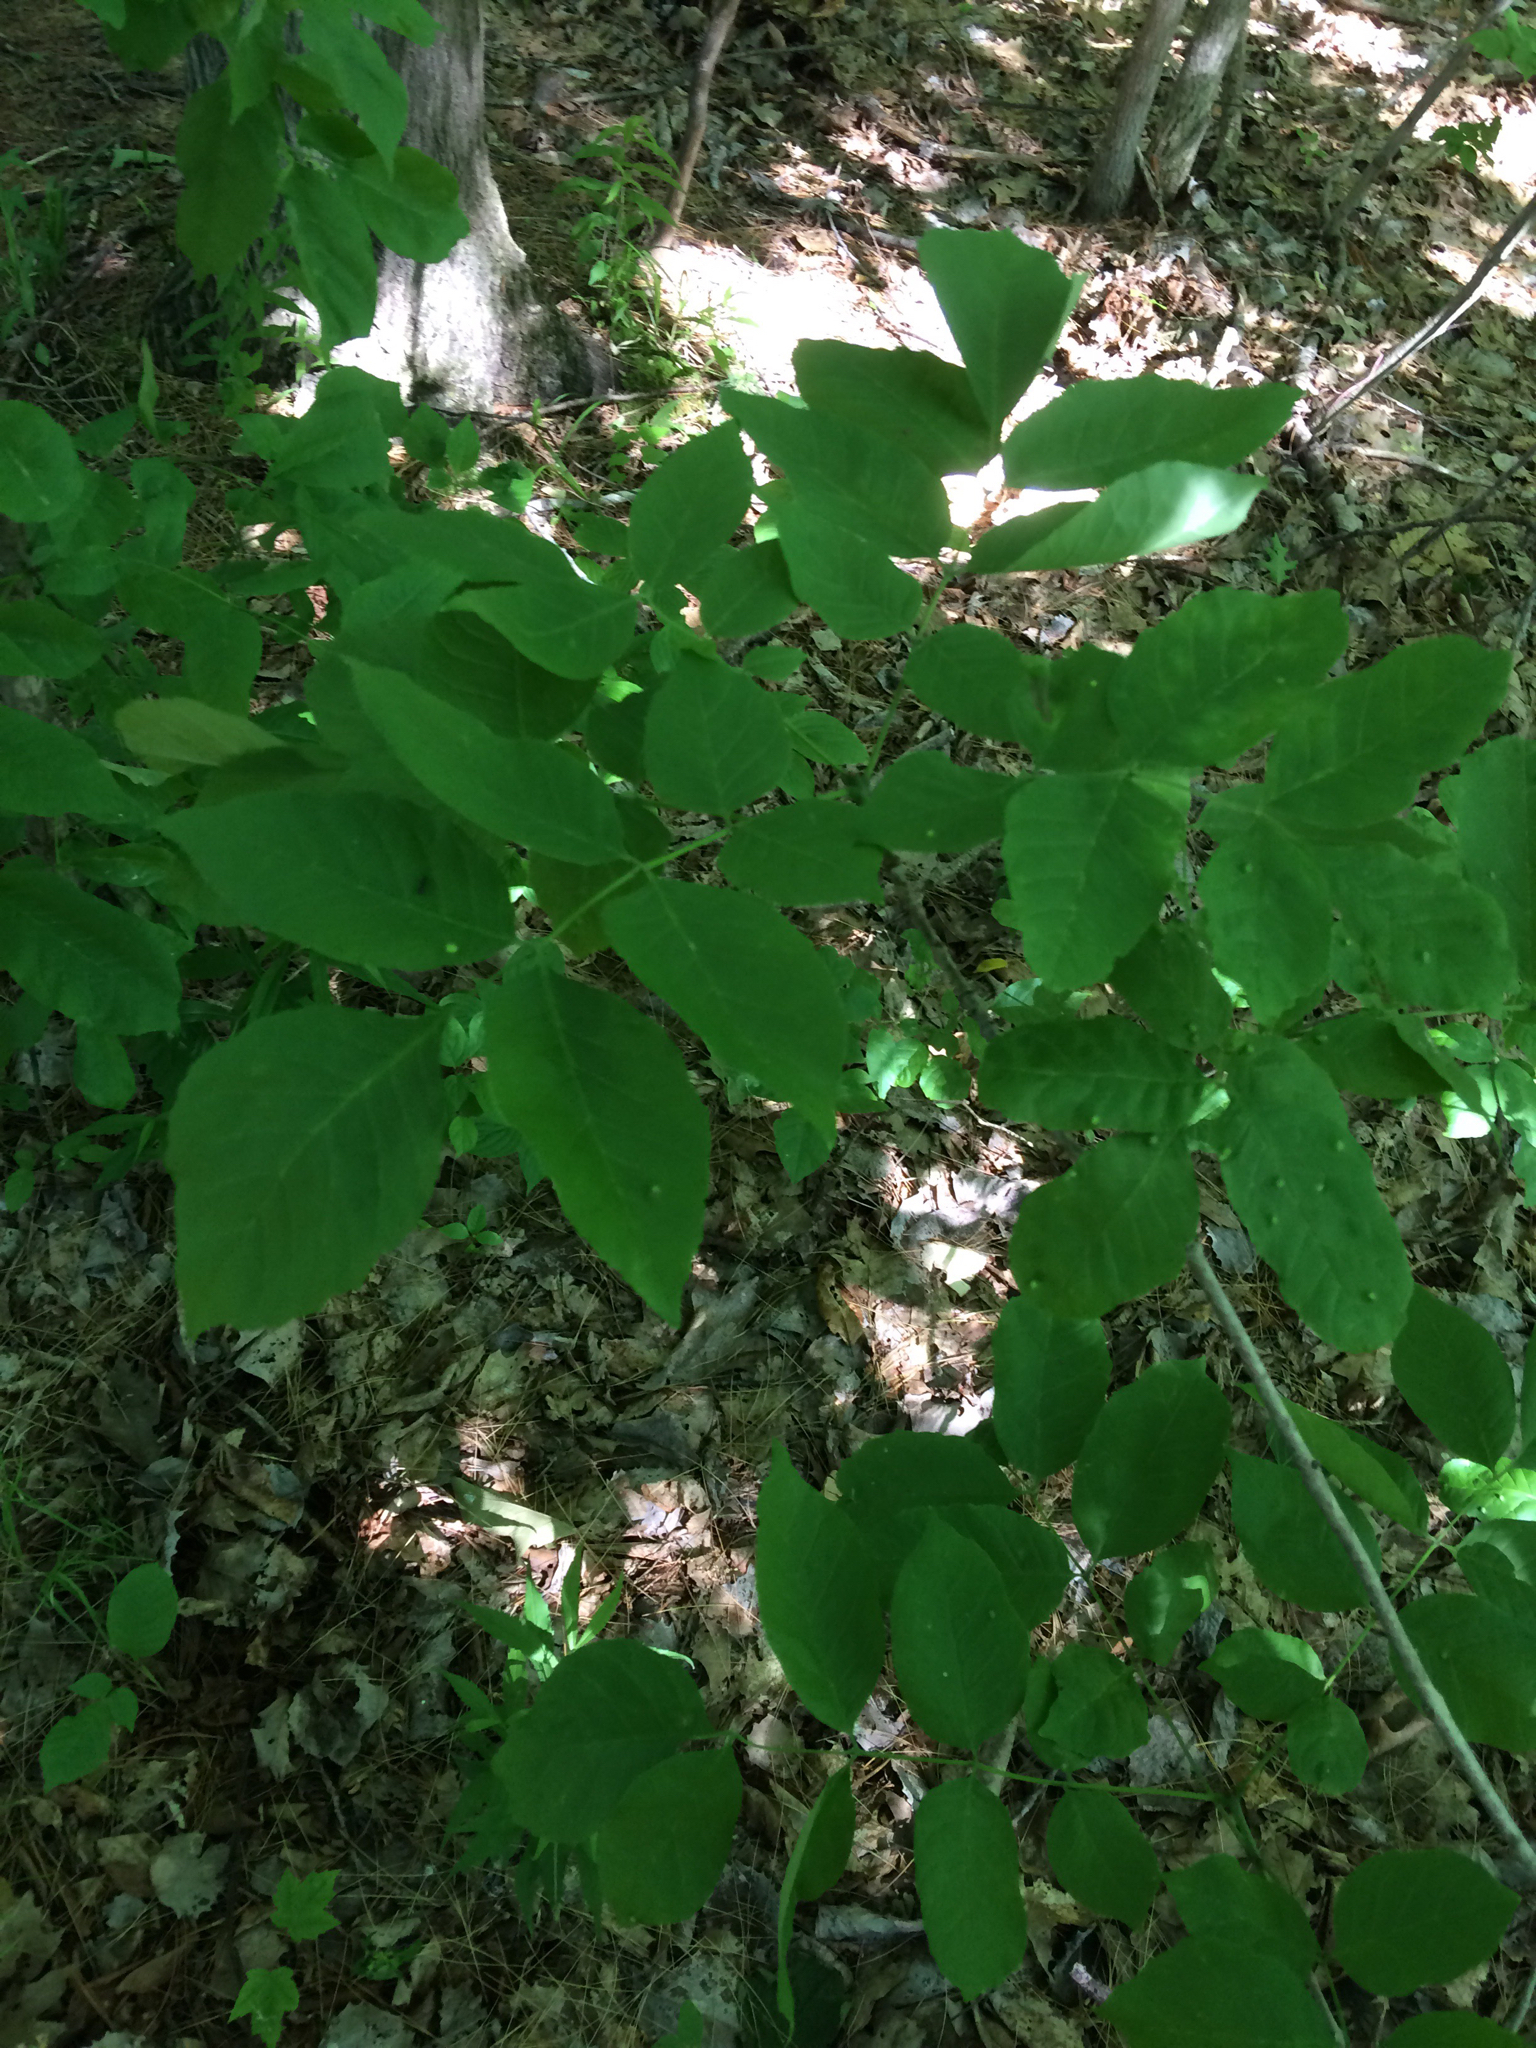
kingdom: Plantae
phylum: Tracheophyta
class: Magnoliopsida
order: Lamiales
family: Oleaceae
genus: Fraxinus
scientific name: Fraxinus americana
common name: White ash
